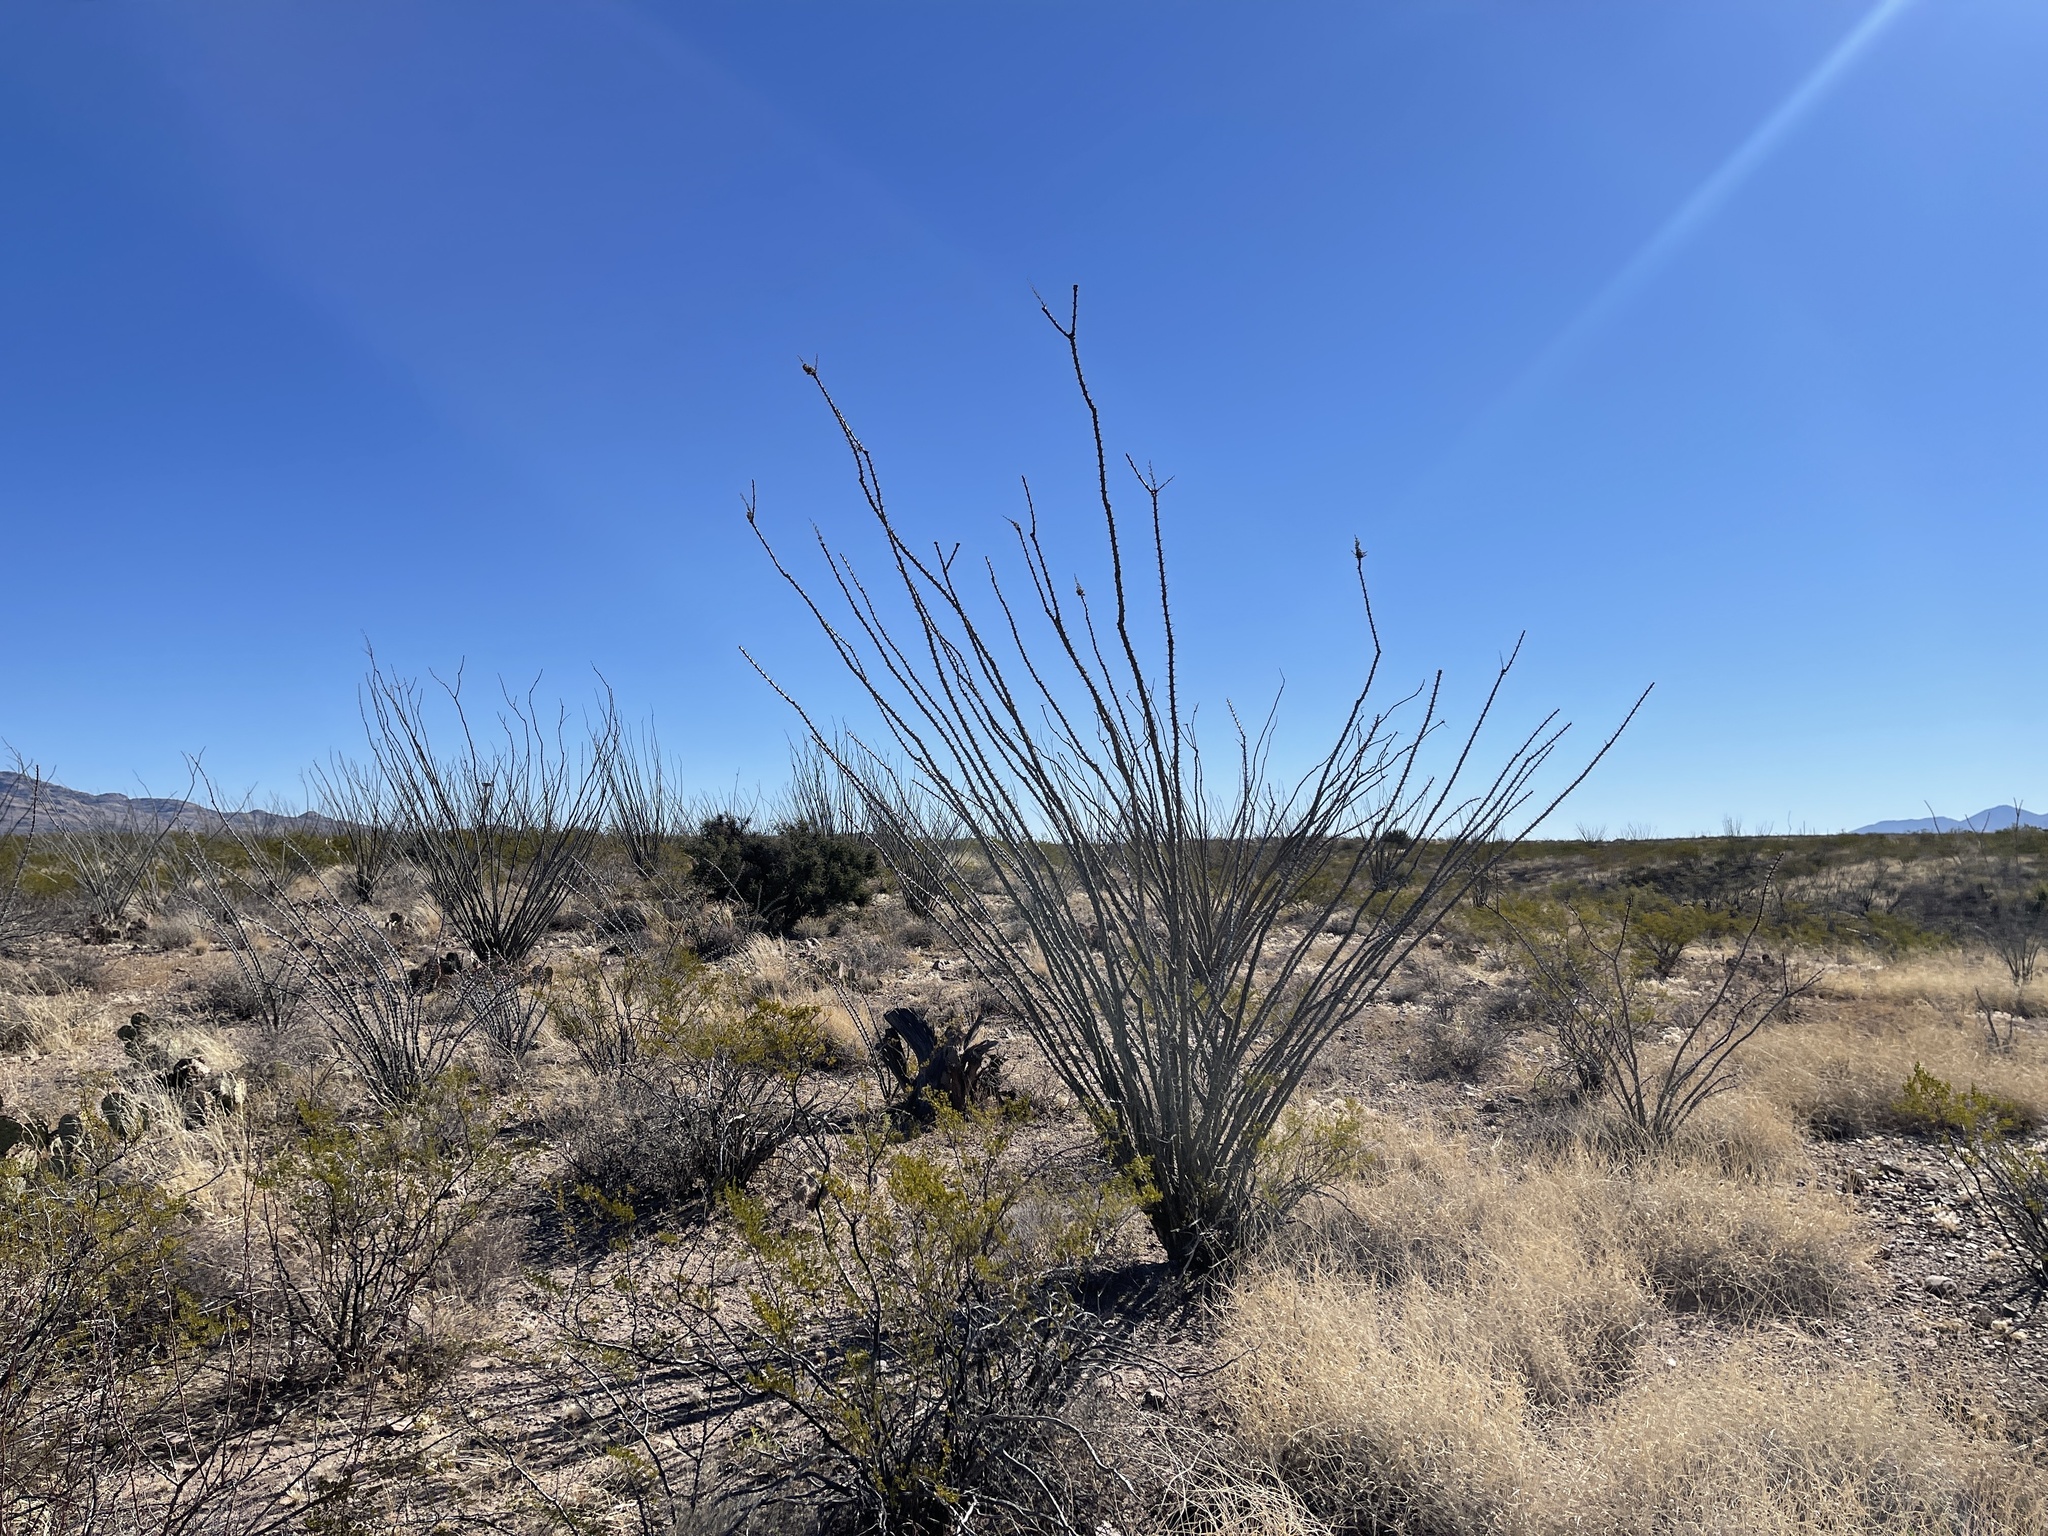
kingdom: Plantae
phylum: Tracheophyta
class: Magnoliopsida
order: Ericales
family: Fouquieriaceae
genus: Fouquieria
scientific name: Fouquieria splendens
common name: Vine-cactus
